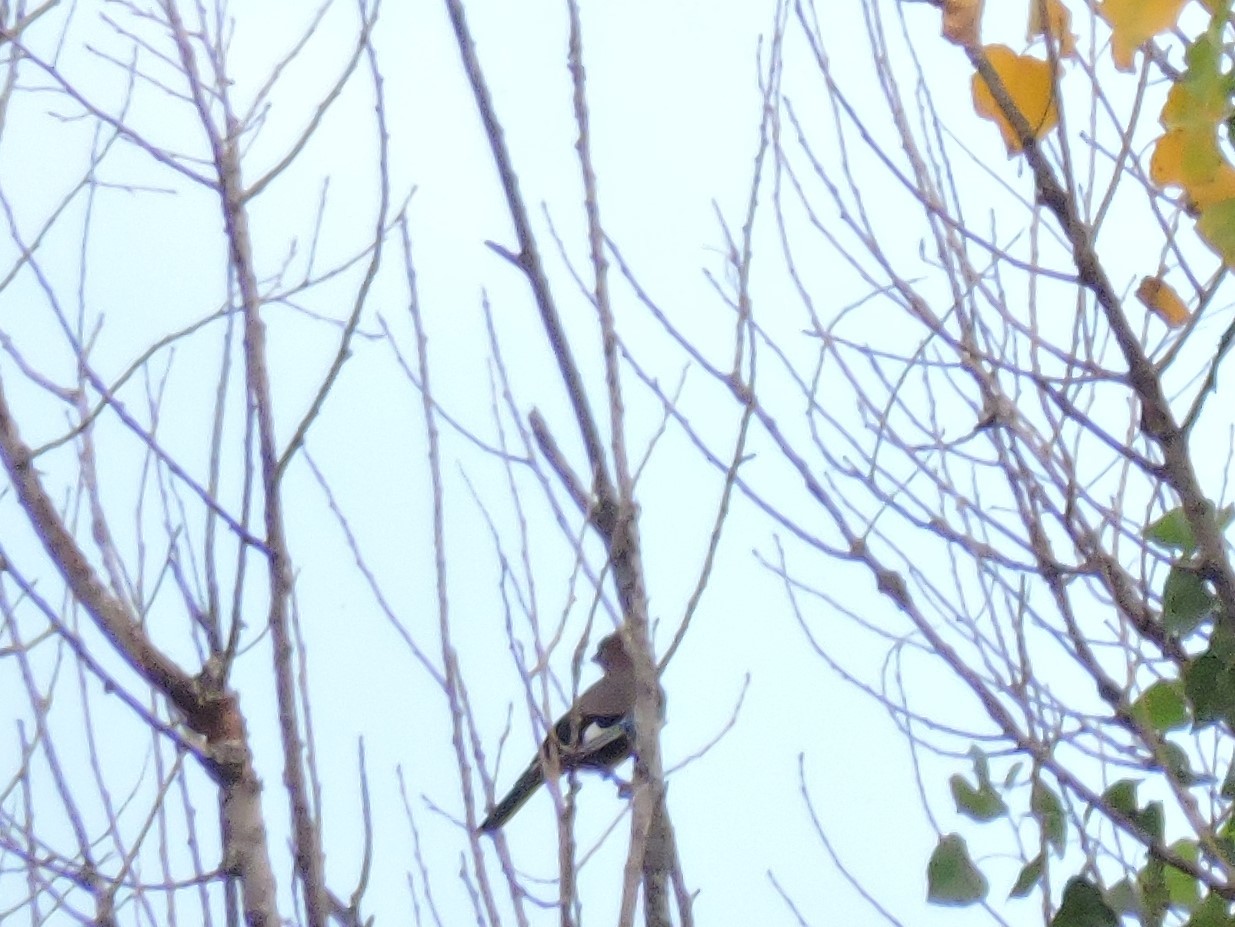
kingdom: Animalia
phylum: Chordata
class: Aves
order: Passeriformes
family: Corvidae
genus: Garrulus
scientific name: Garrulus glandarius
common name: Eurasian jay
